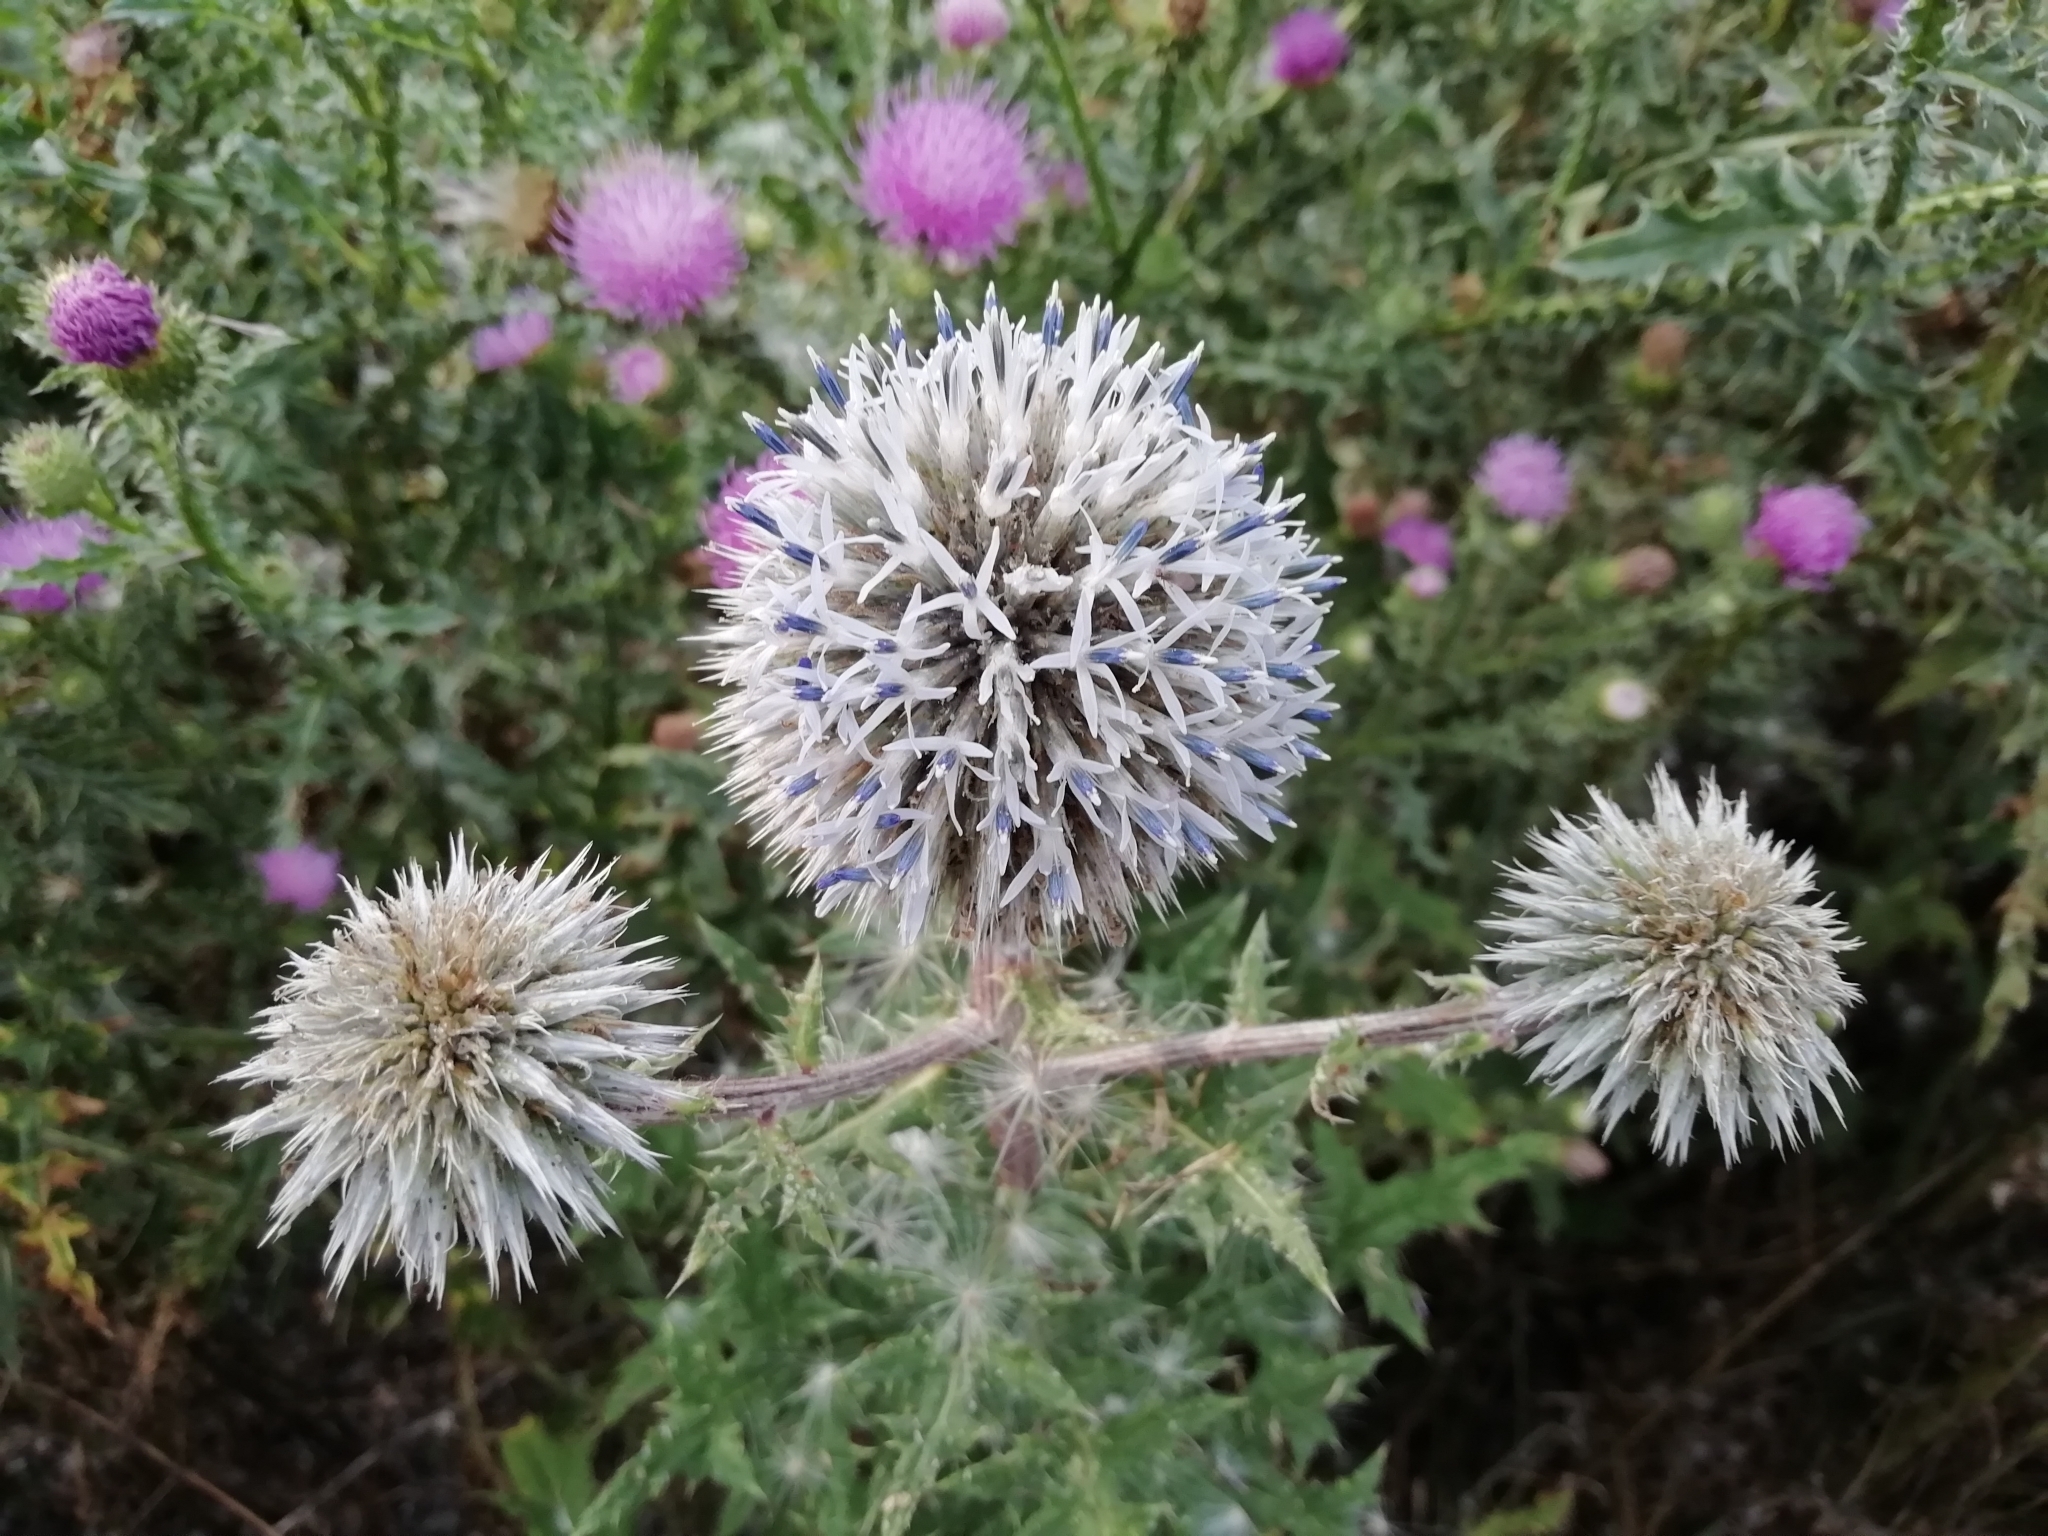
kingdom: Plantae
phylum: Tracheophyta
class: Magnoliopsida
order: Asterales
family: Asteraceae
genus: Echinops
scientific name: Echinops sphaerocephalus
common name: Glandular globe-thistle
